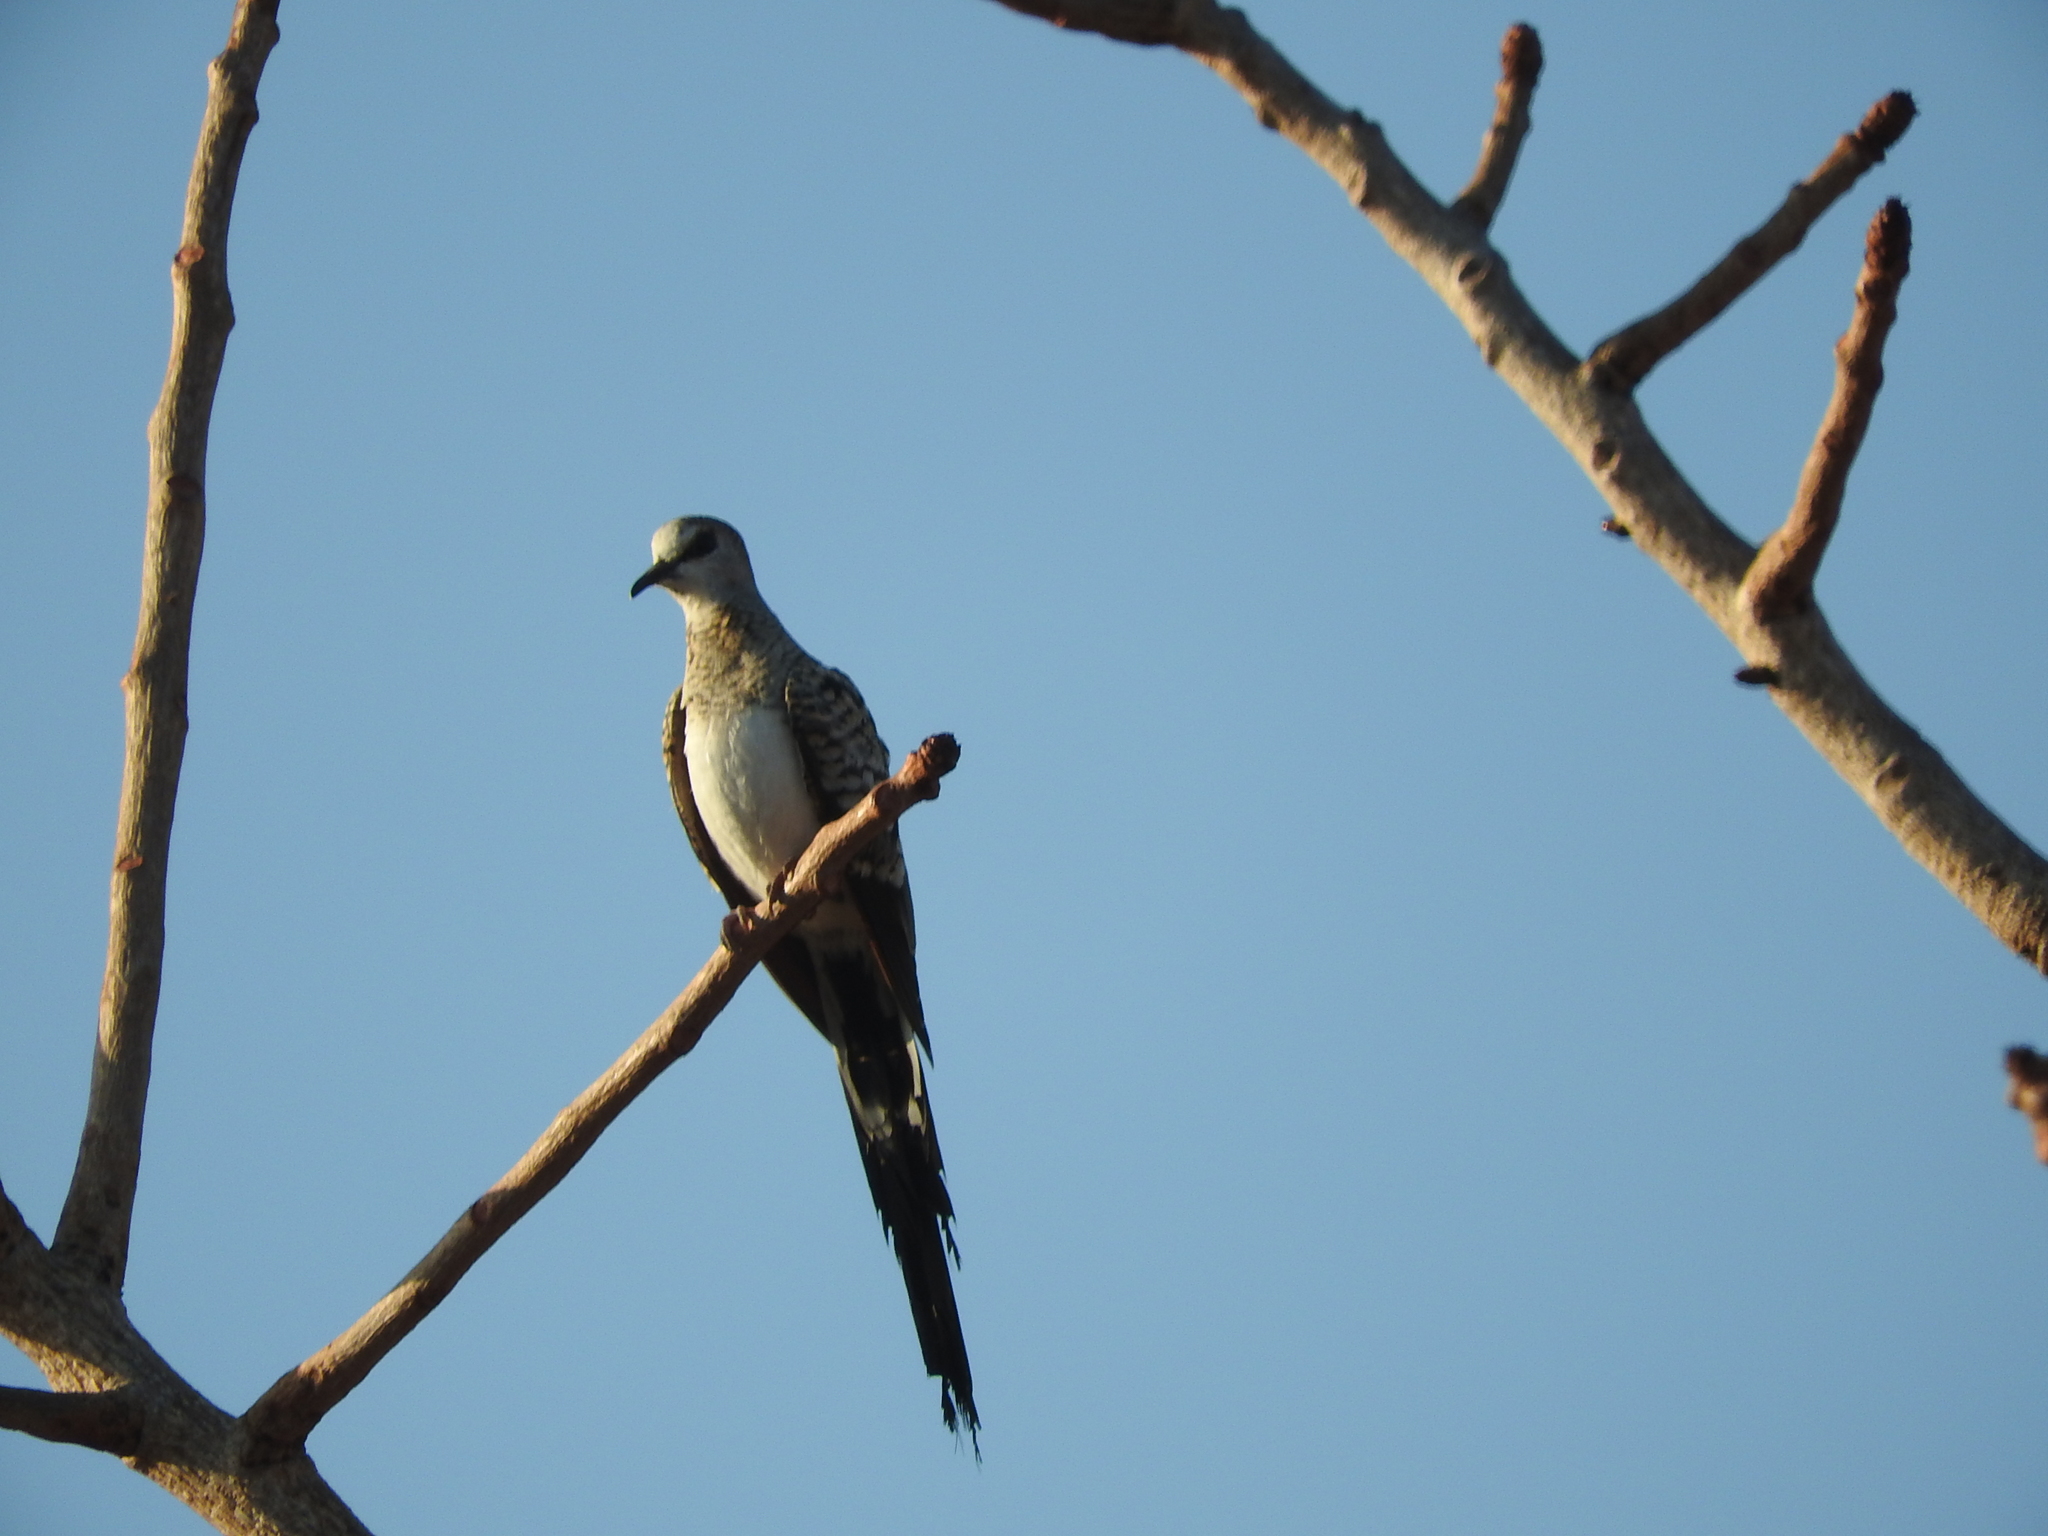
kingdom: Animalia
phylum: Chordata
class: Aves
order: Columbiformes
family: Columbidae
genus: Oena
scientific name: Oena capensis
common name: Namaqua dove
